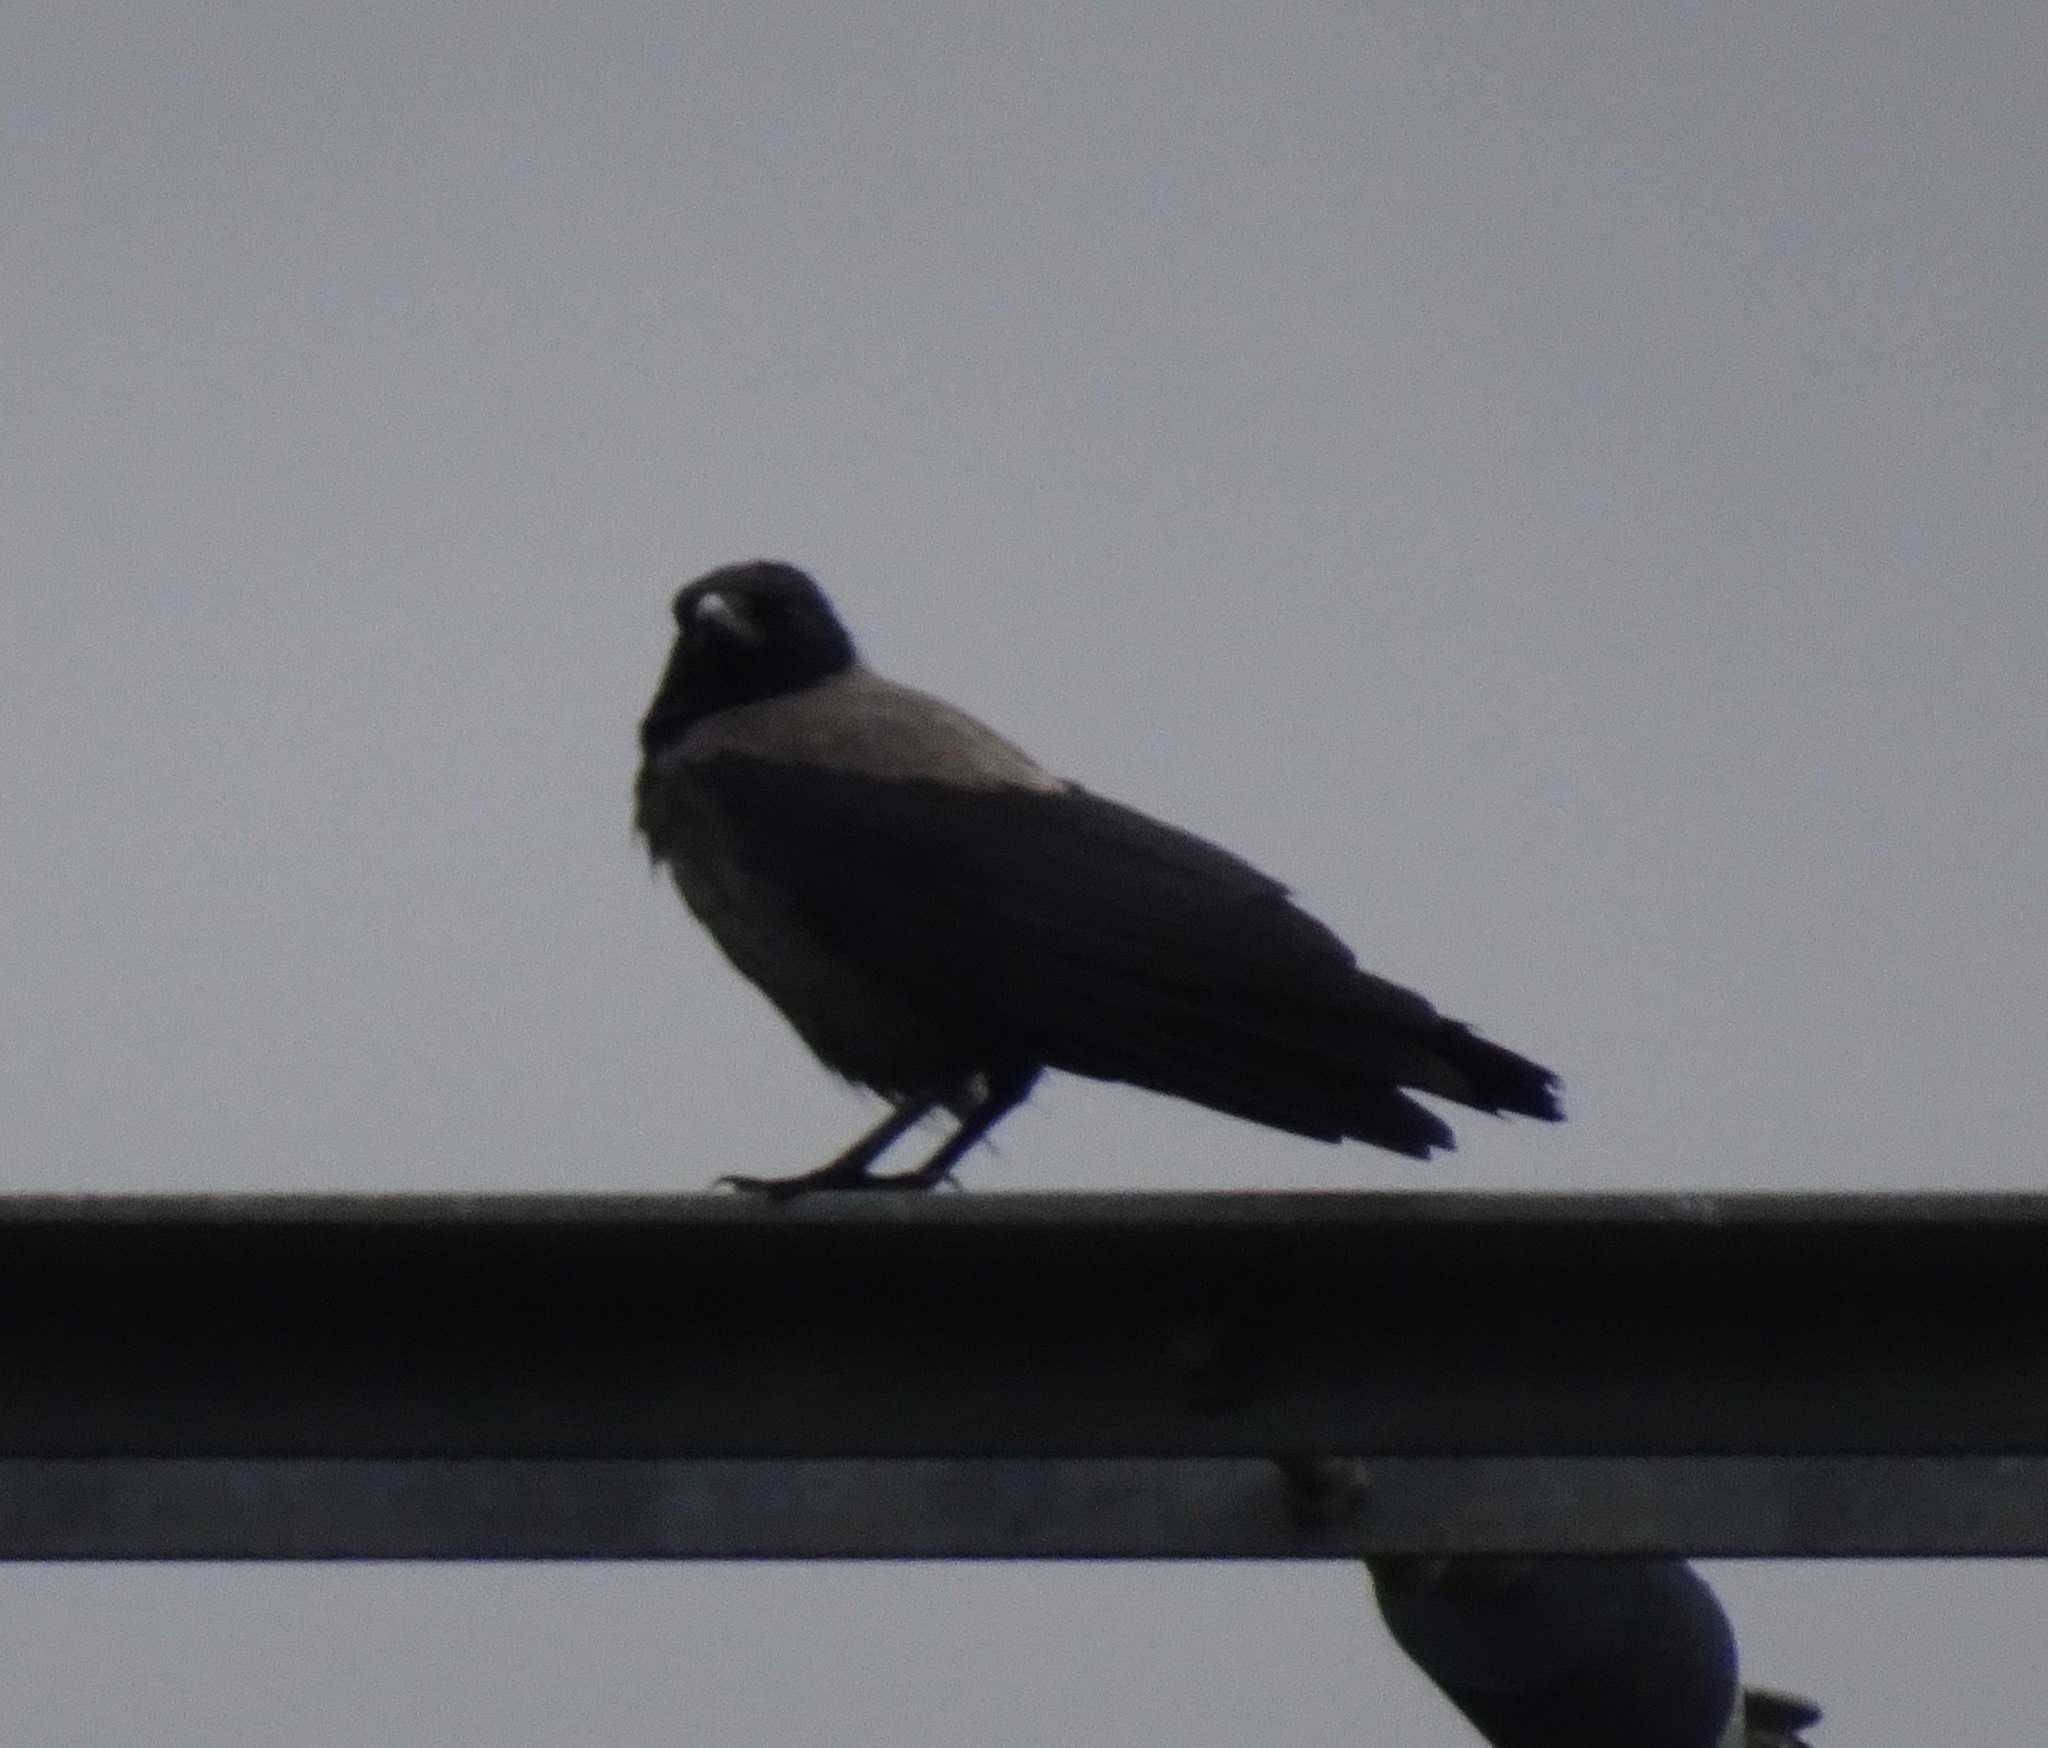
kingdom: Animalia
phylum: Chordata
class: Aves
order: Passeriformes
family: Corvidae
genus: Corvus
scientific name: Corvus cornix
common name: Hooded crow
